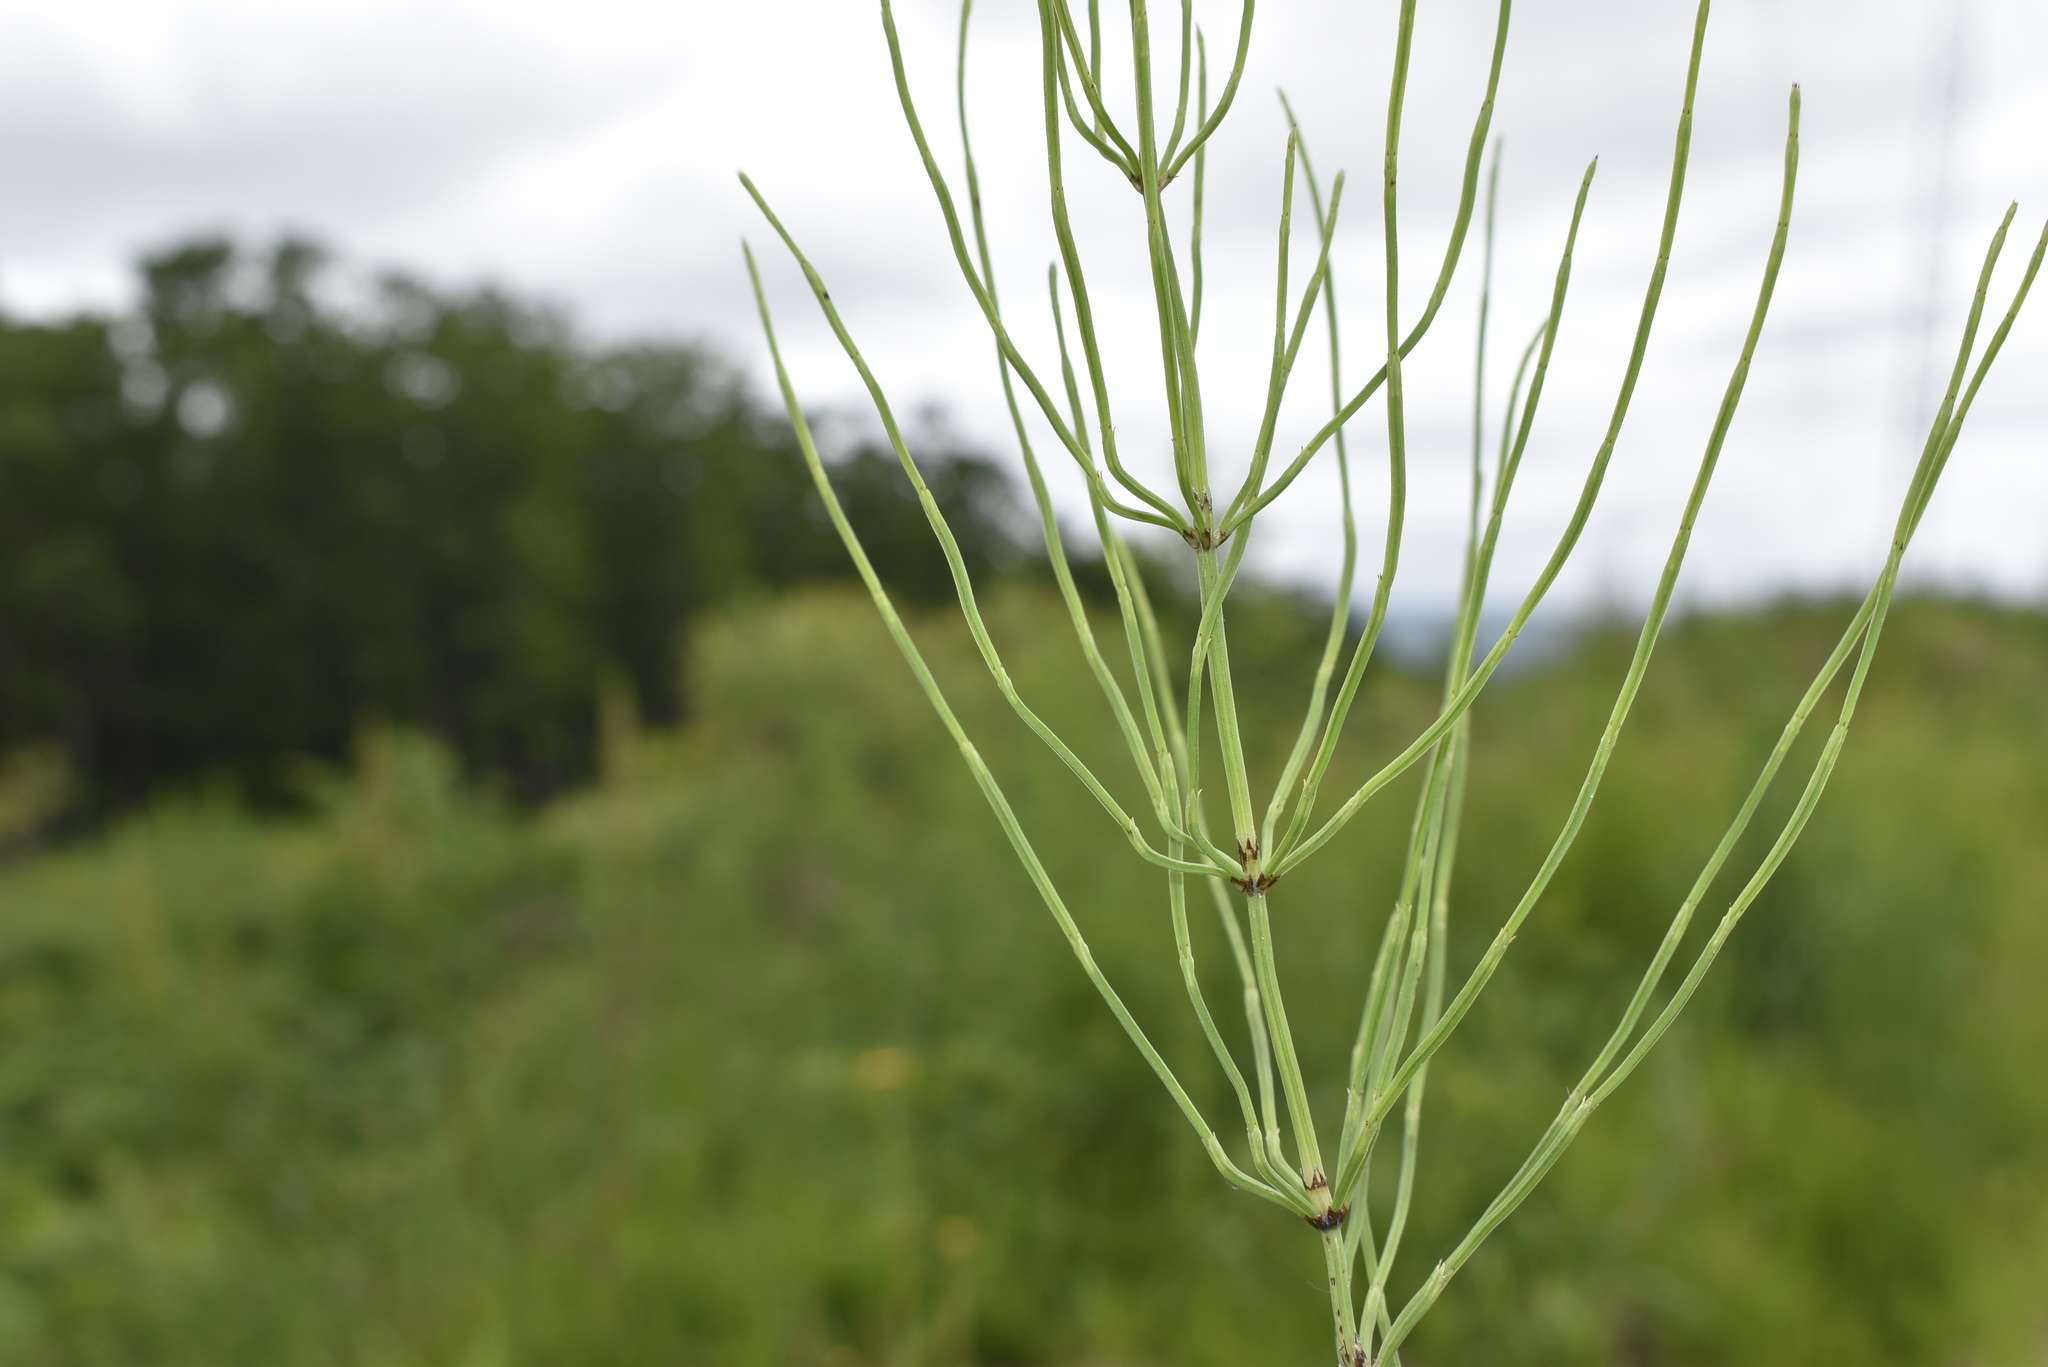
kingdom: Plantae
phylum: Tracheophyta
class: Polypodiopsida
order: Equisetales
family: Equisetaceae
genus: Equisetum
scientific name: Equisetum arvense
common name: Field horsetail
